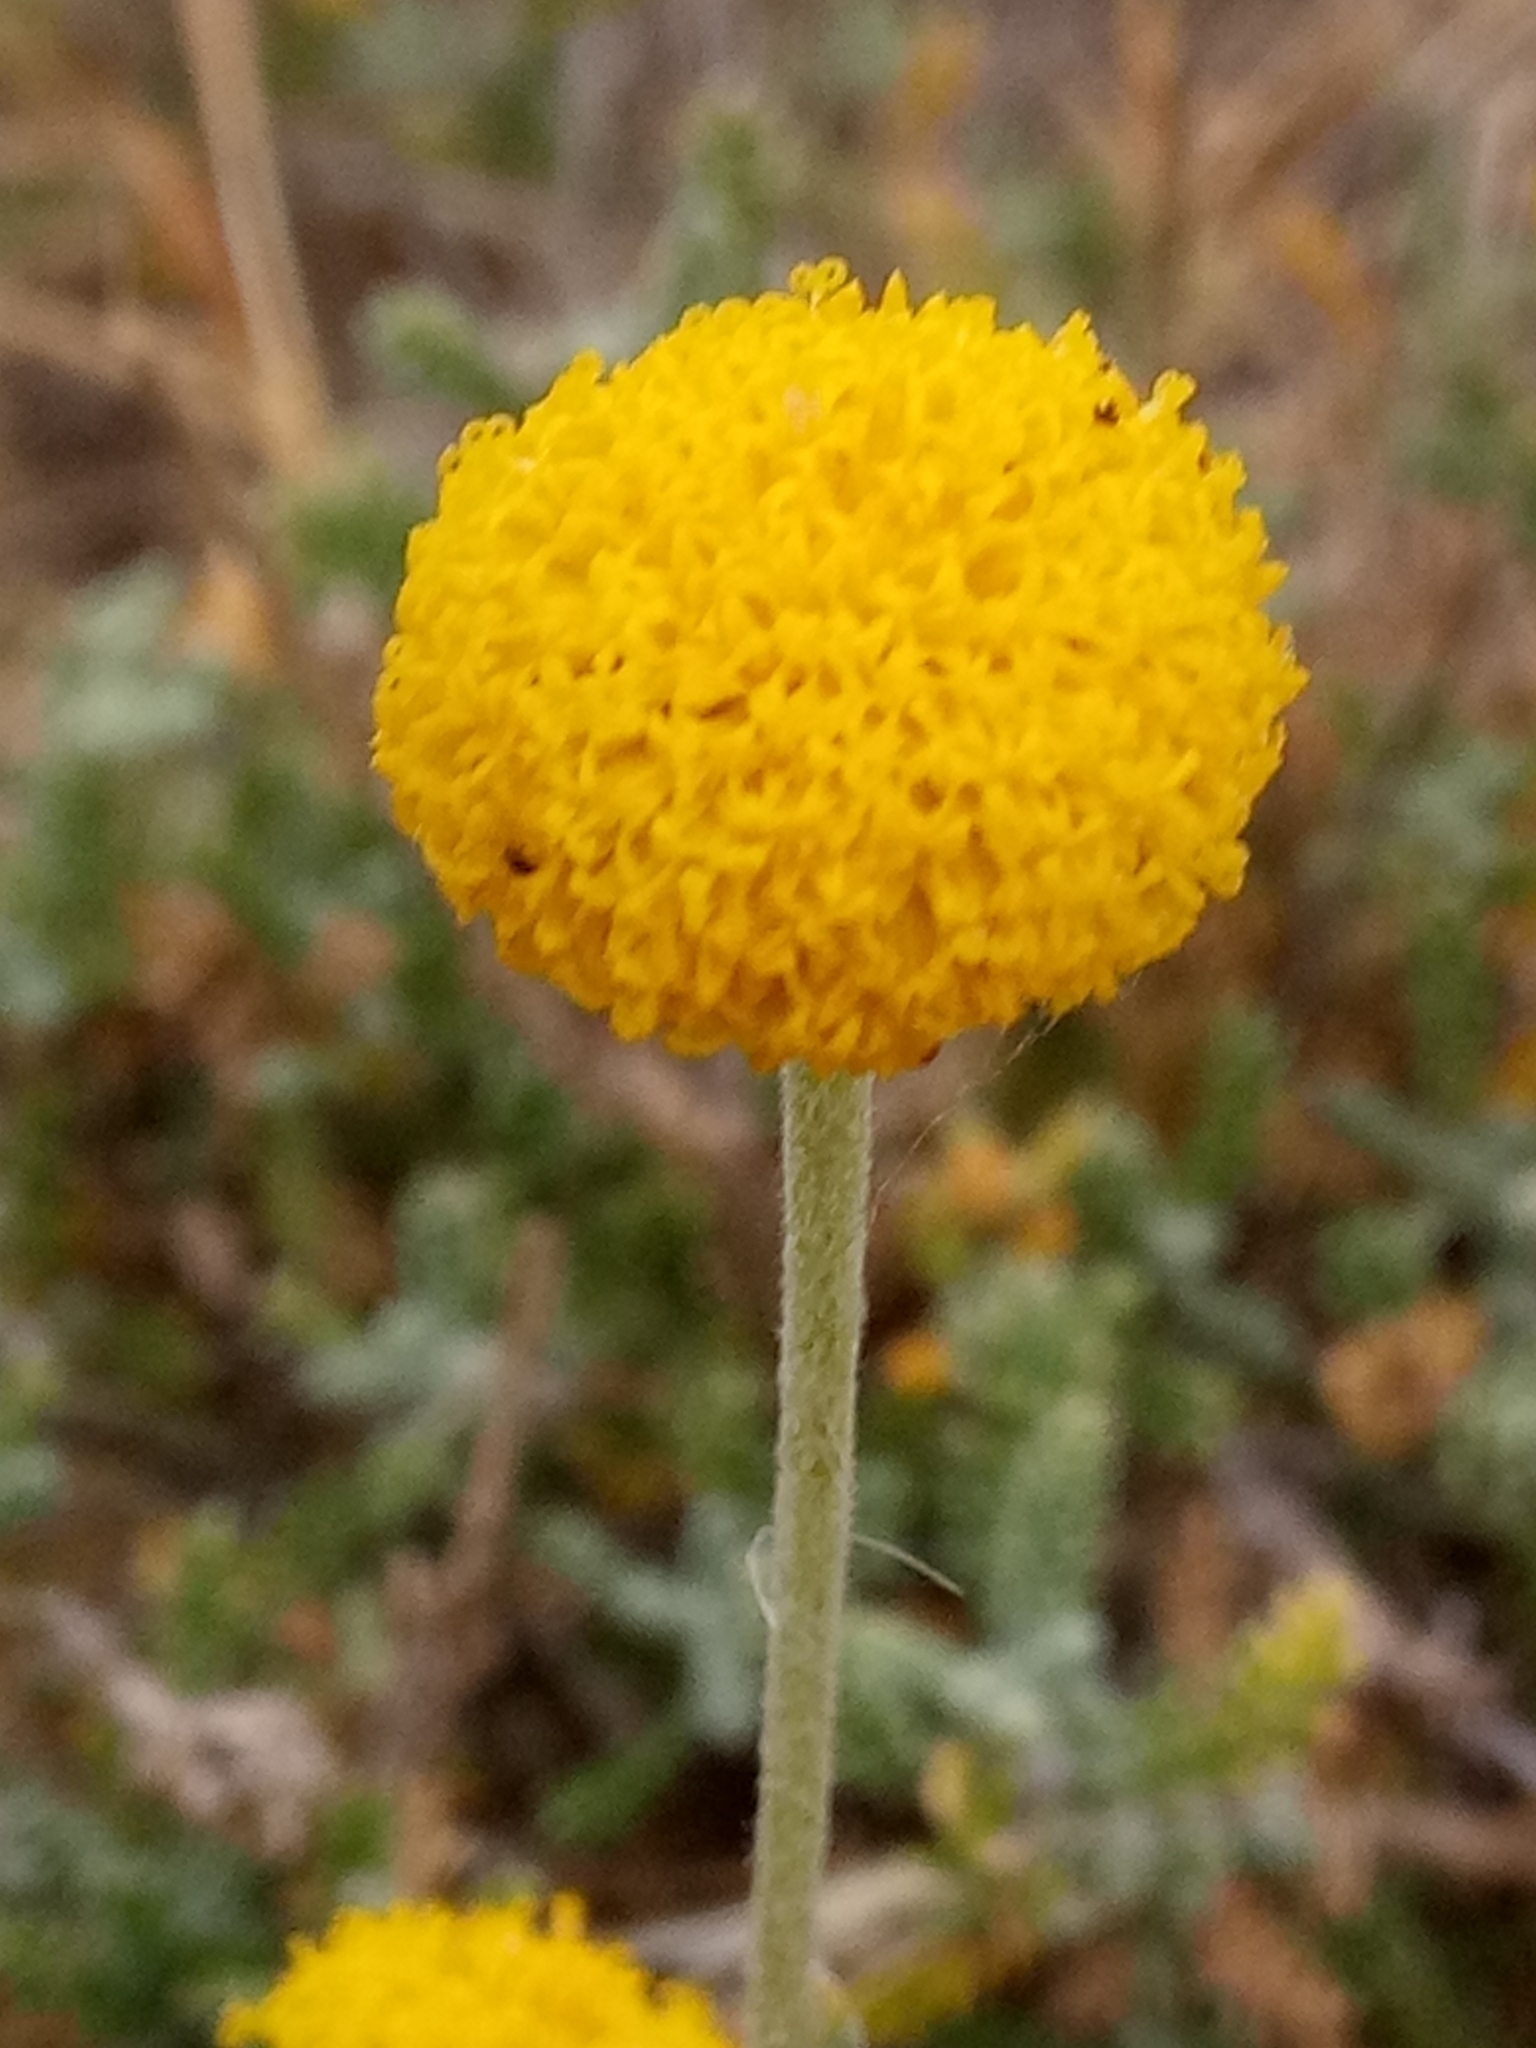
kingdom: Plantae
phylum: Tracheophyta
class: Magnoliopsida
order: Asterales
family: Asteraceae
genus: Santolina
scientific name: Santolina africana
